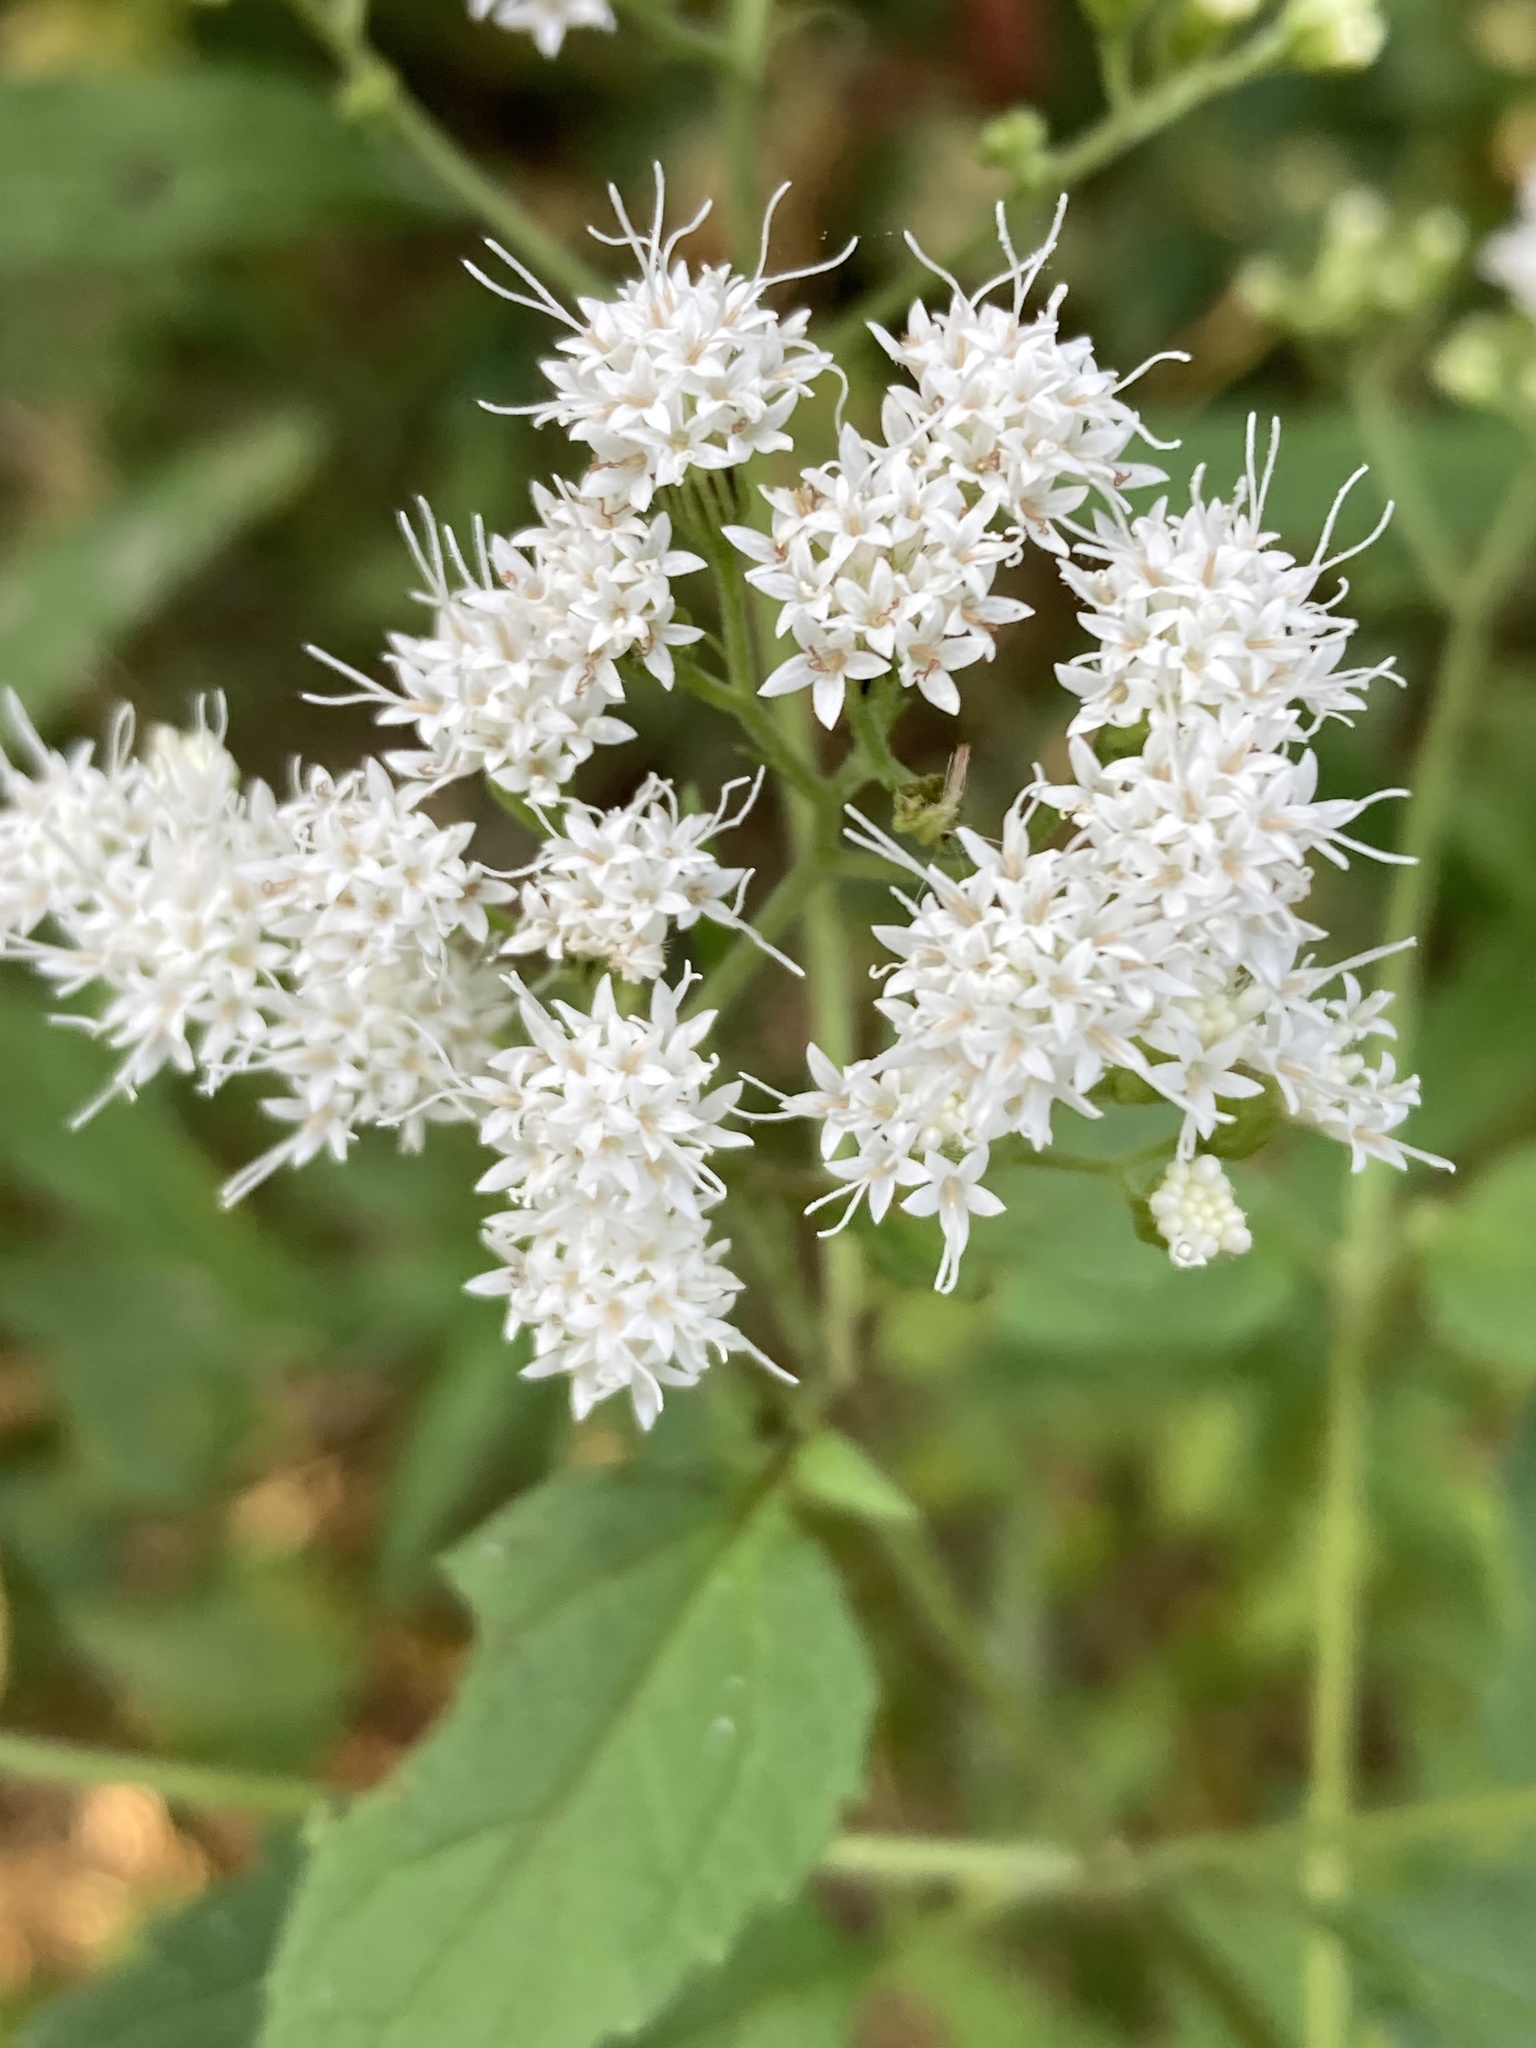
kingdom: Plantae
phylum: Tracheophyta
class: Magnoliopsida
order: Asterales
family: Asteraceae
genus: Ageratina
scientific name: Ageratina altissima
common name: White snakeroot
